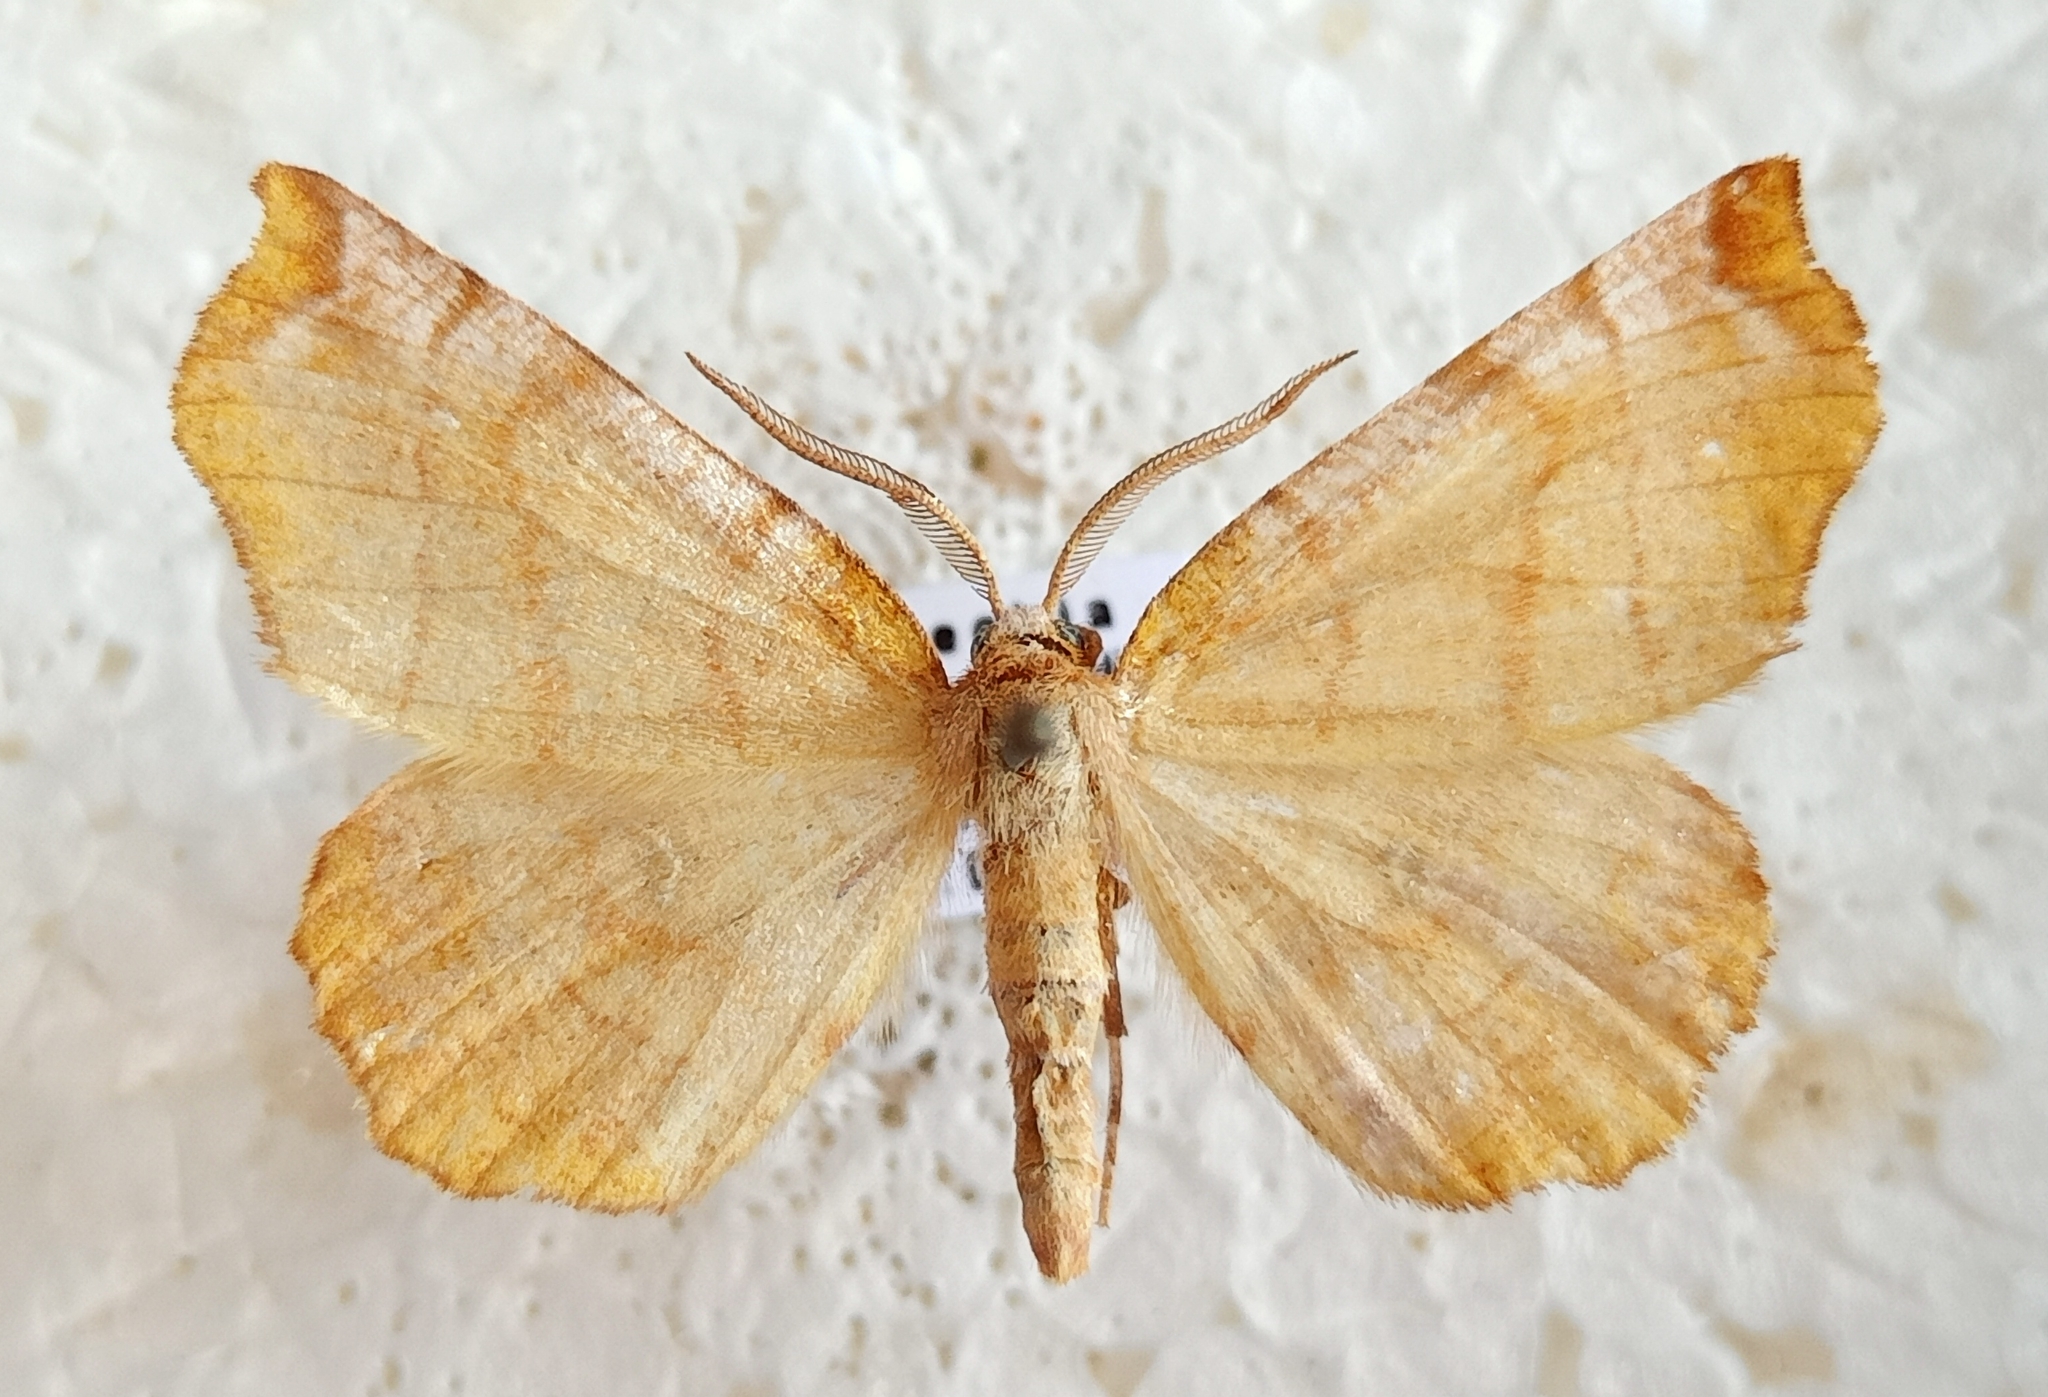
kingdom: Animalia
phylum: Arthropoda
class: Insecta
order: Lepidoptera
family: Geometridae
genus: Selenia
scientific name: Selenia dentaria
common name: Early thorn
